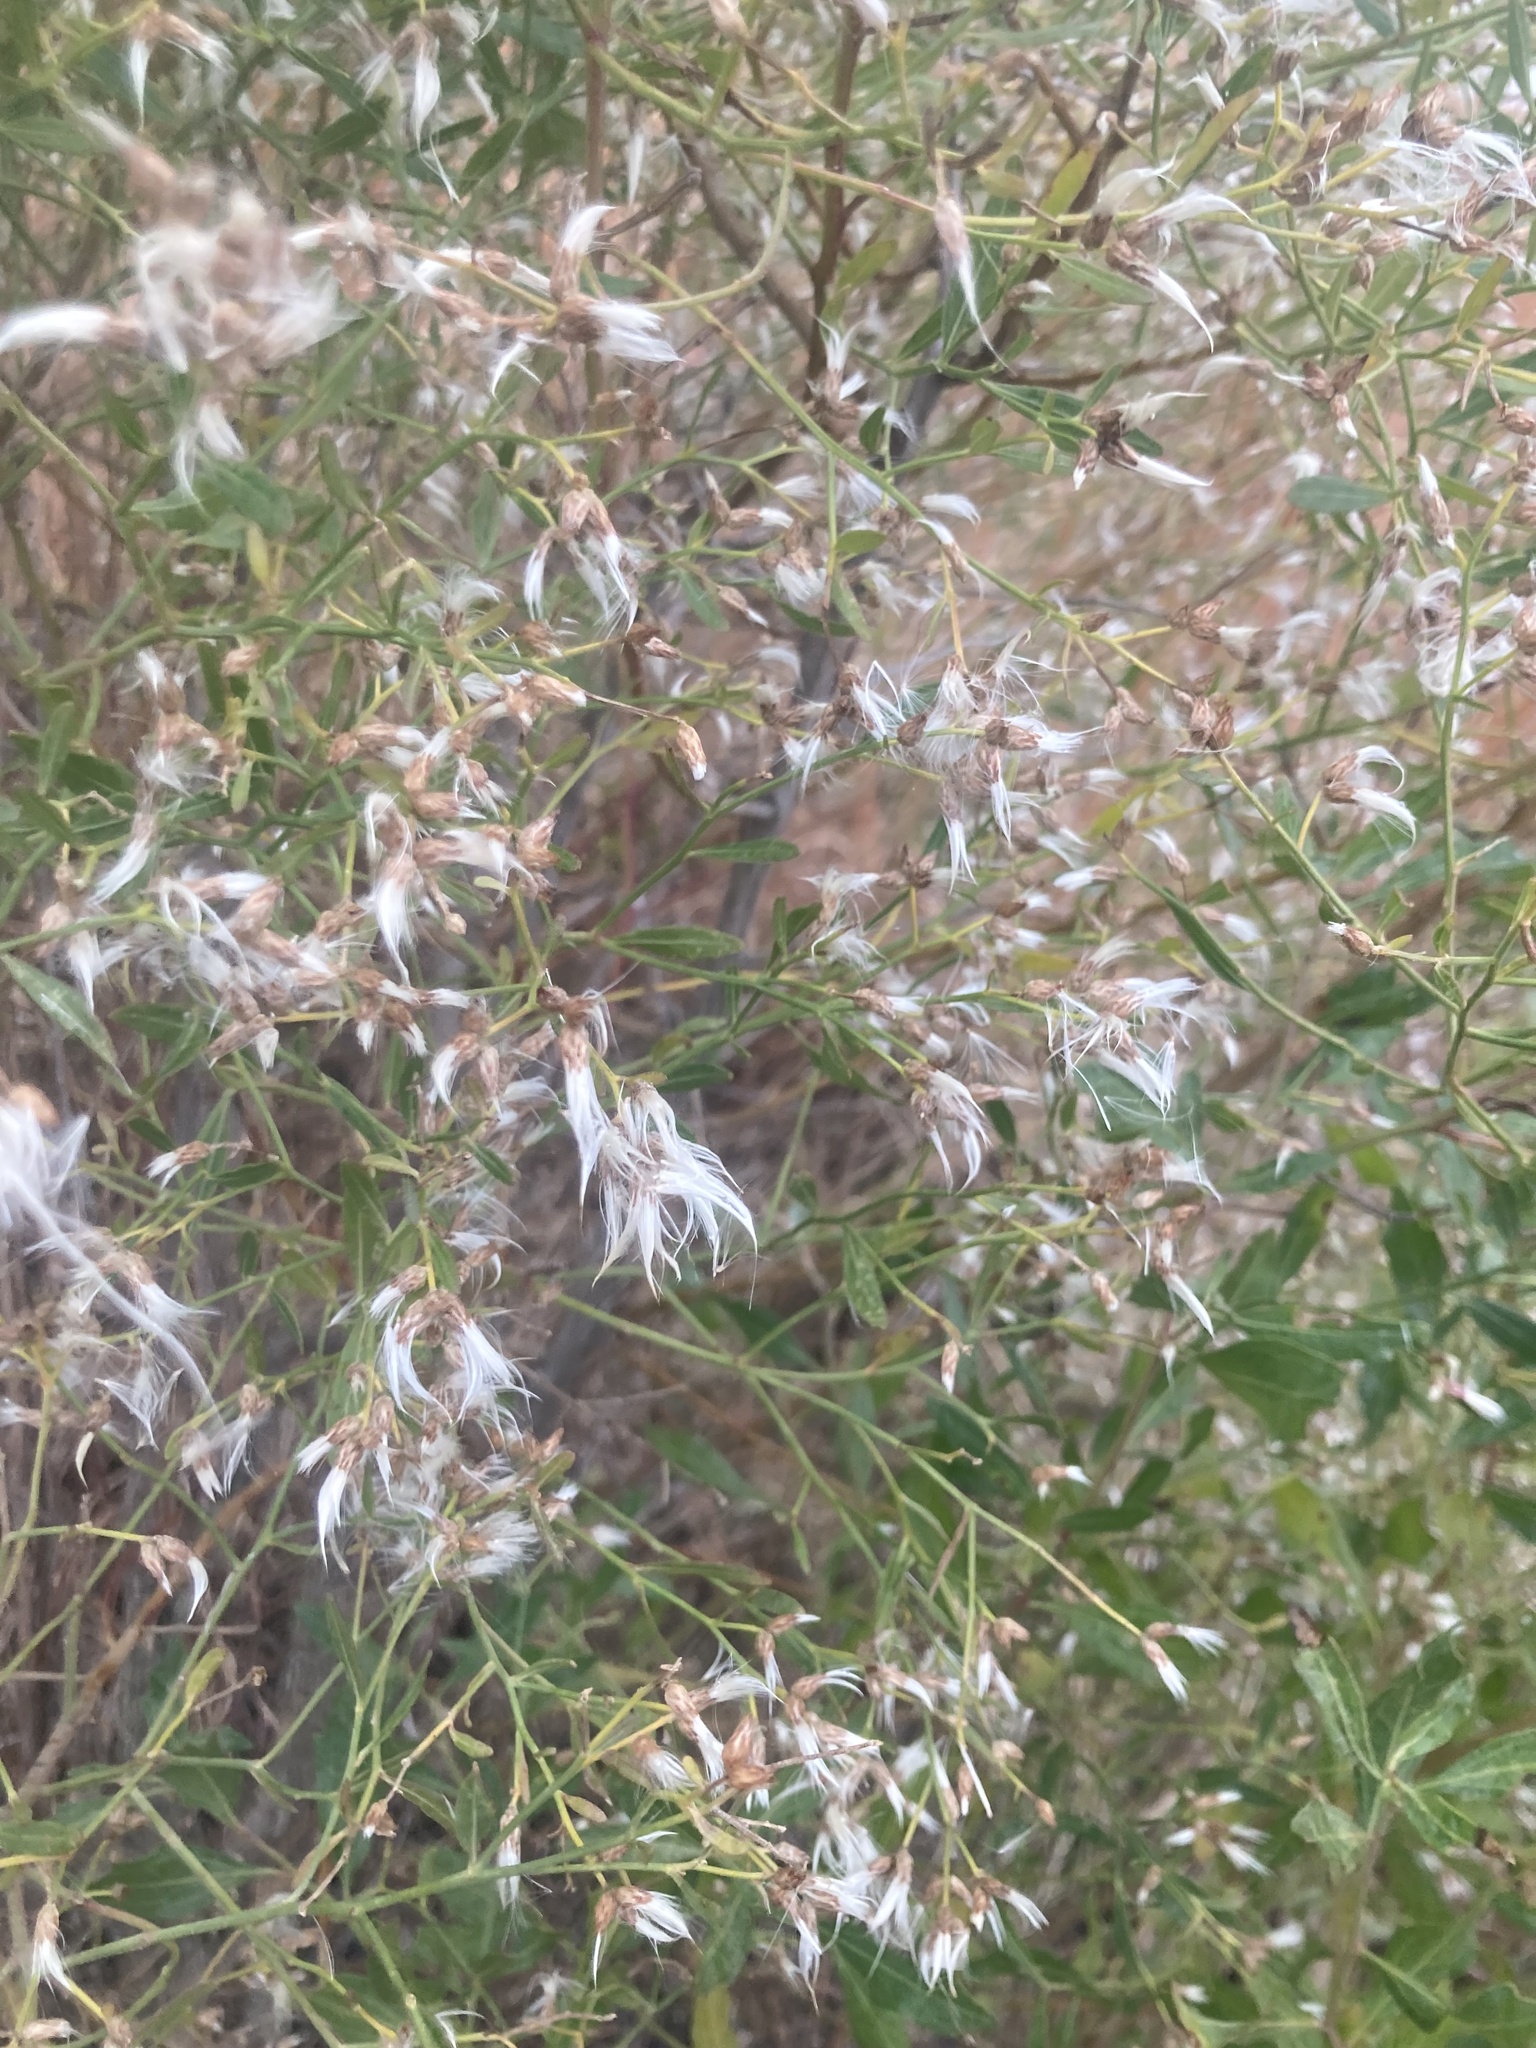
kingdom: Plantae
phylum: Tracheophyta
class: Magnoliopsida
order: Asterales
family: Asteraceae
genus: Baccharis
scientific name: Baccharis halimifolia
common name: Eastern baccharis
